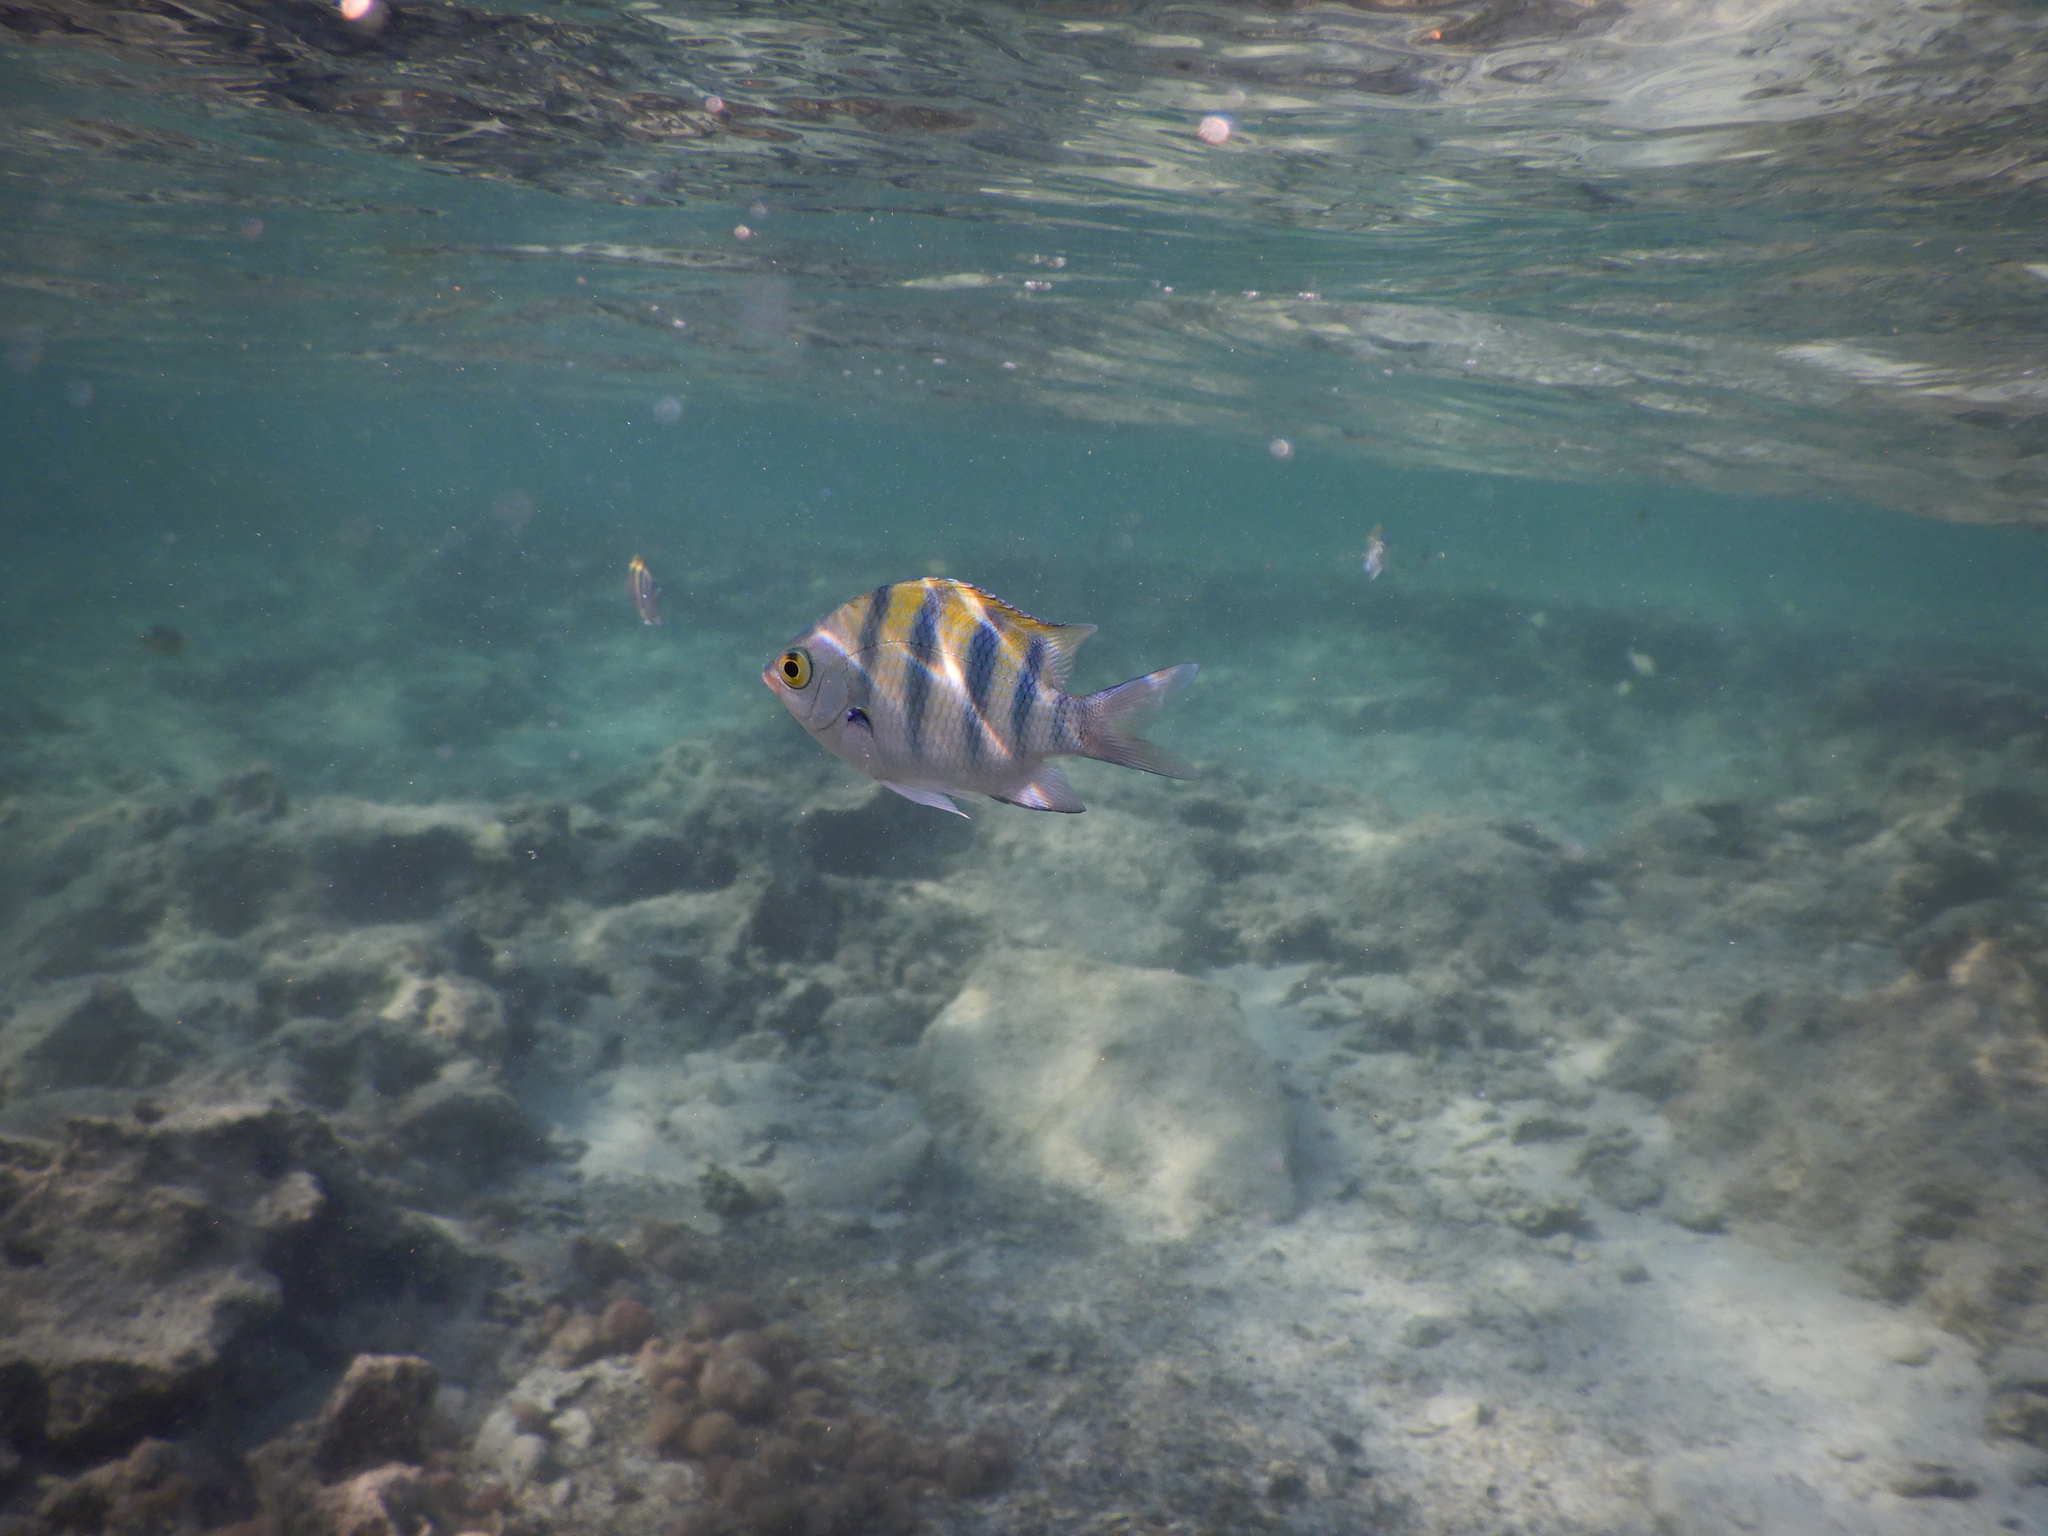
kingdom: Animalia
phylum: Chordata
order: Perciformes
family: Pomacentridae
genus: Abudefduf
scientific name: Abudefduf vaigiensis
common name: Indo-pacific sergeant
